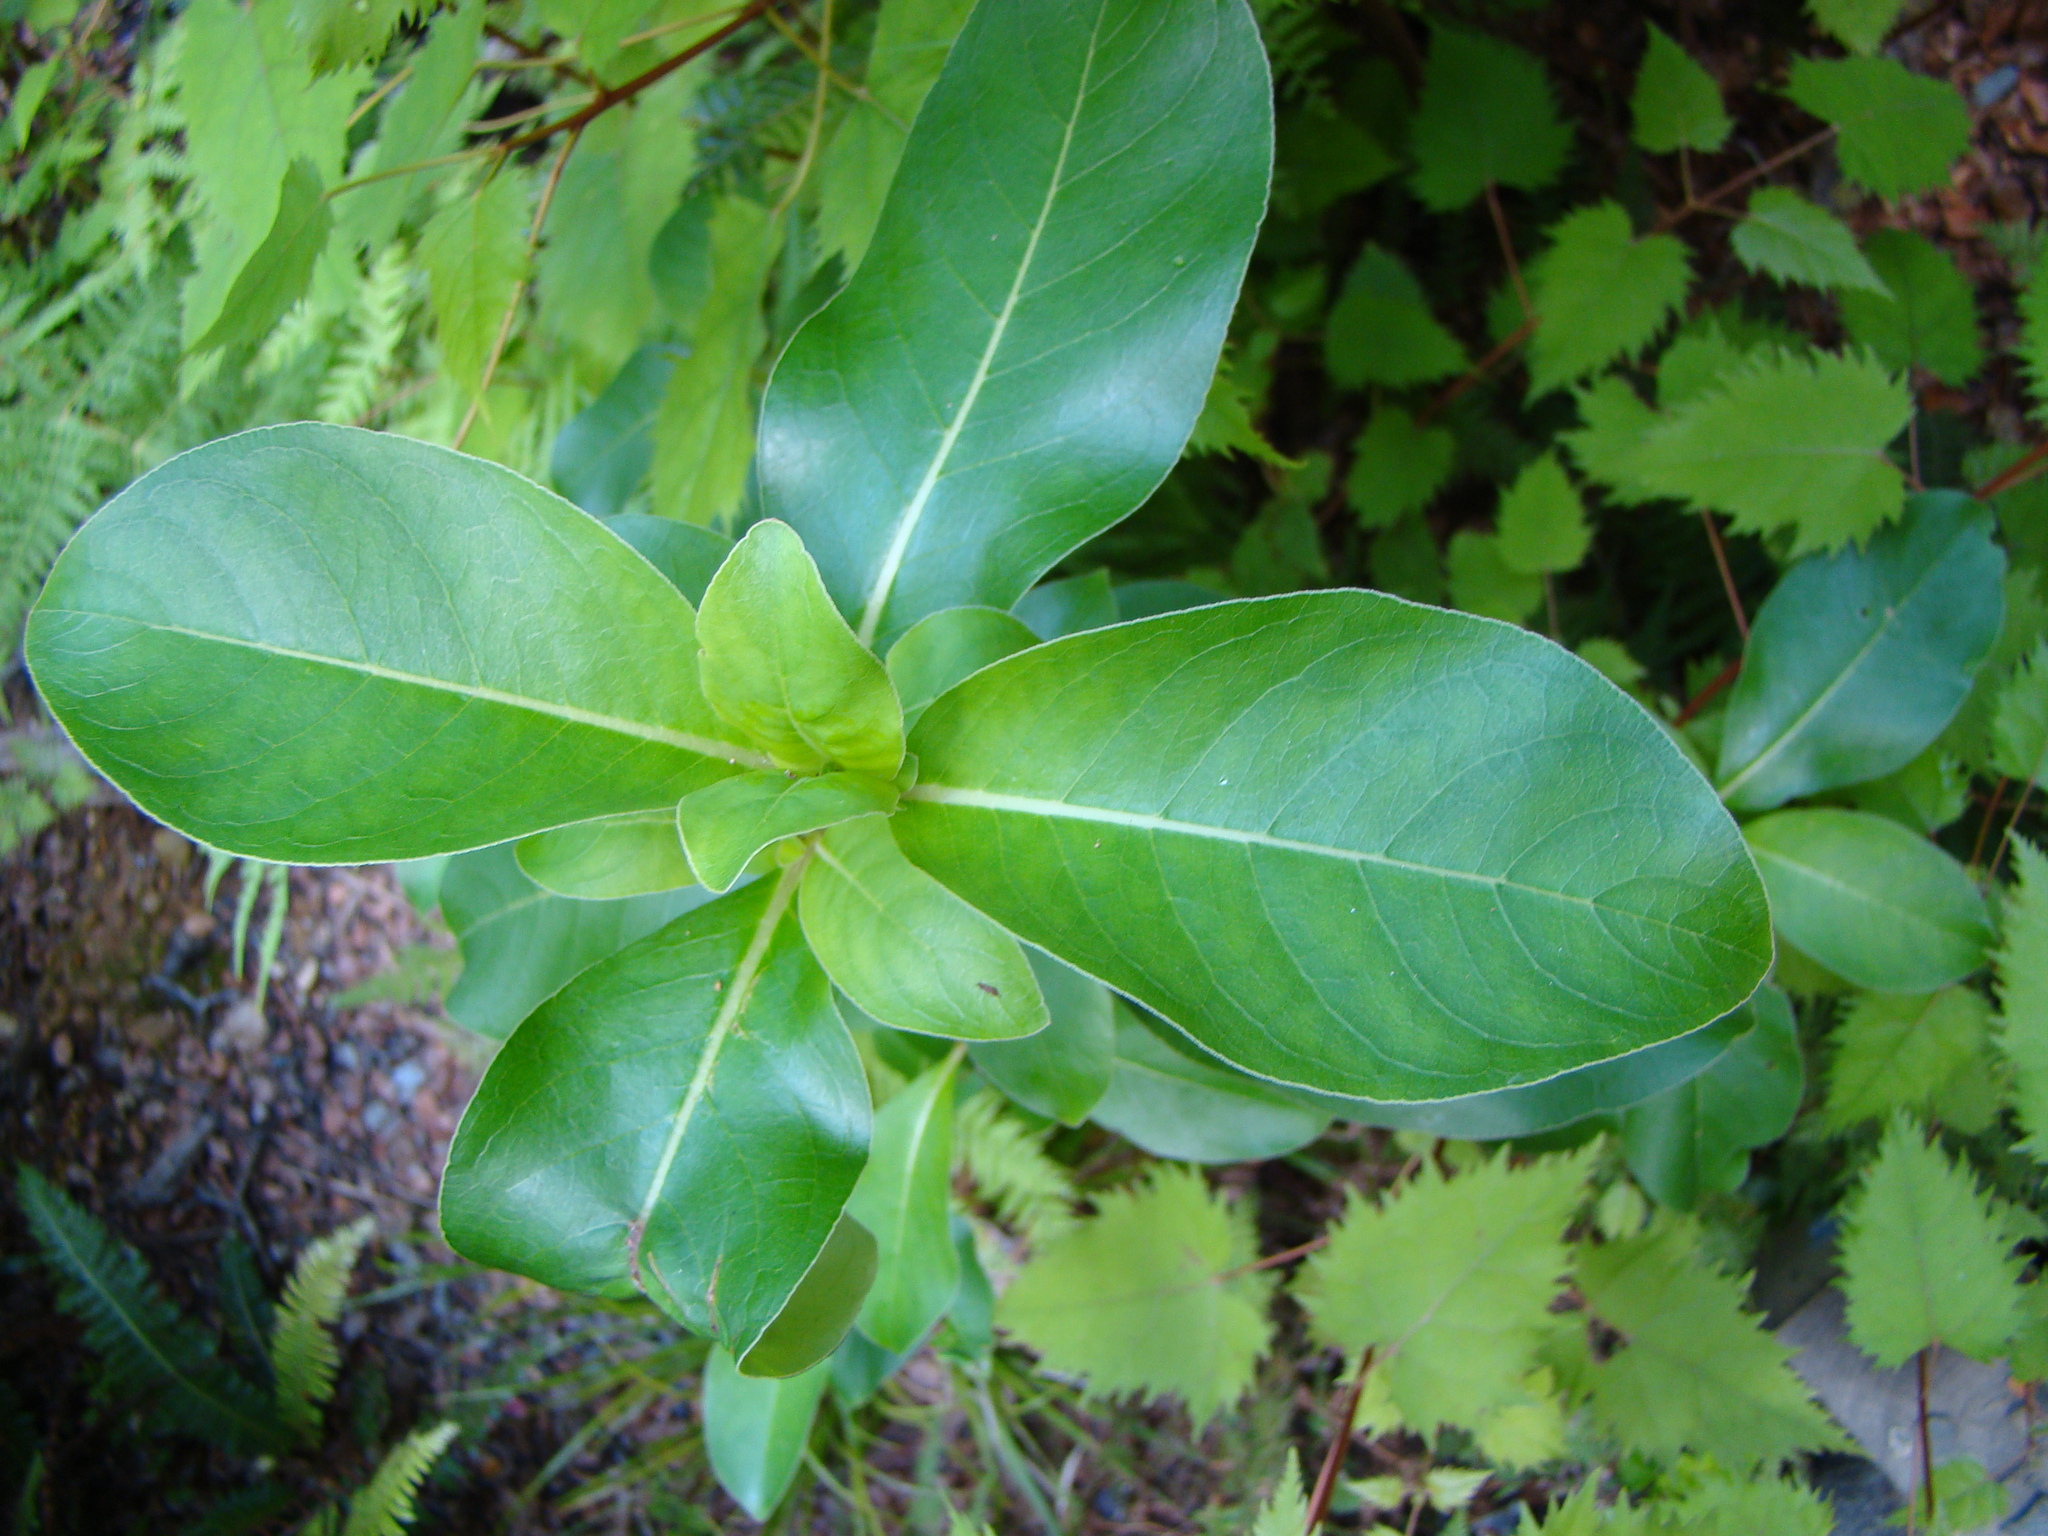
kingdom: Plantae
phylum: Tracheophyta
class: Magnoliopsida
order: Gentianales
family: Rubiaceae
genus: Coprosma
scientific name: Coprosma robusta
